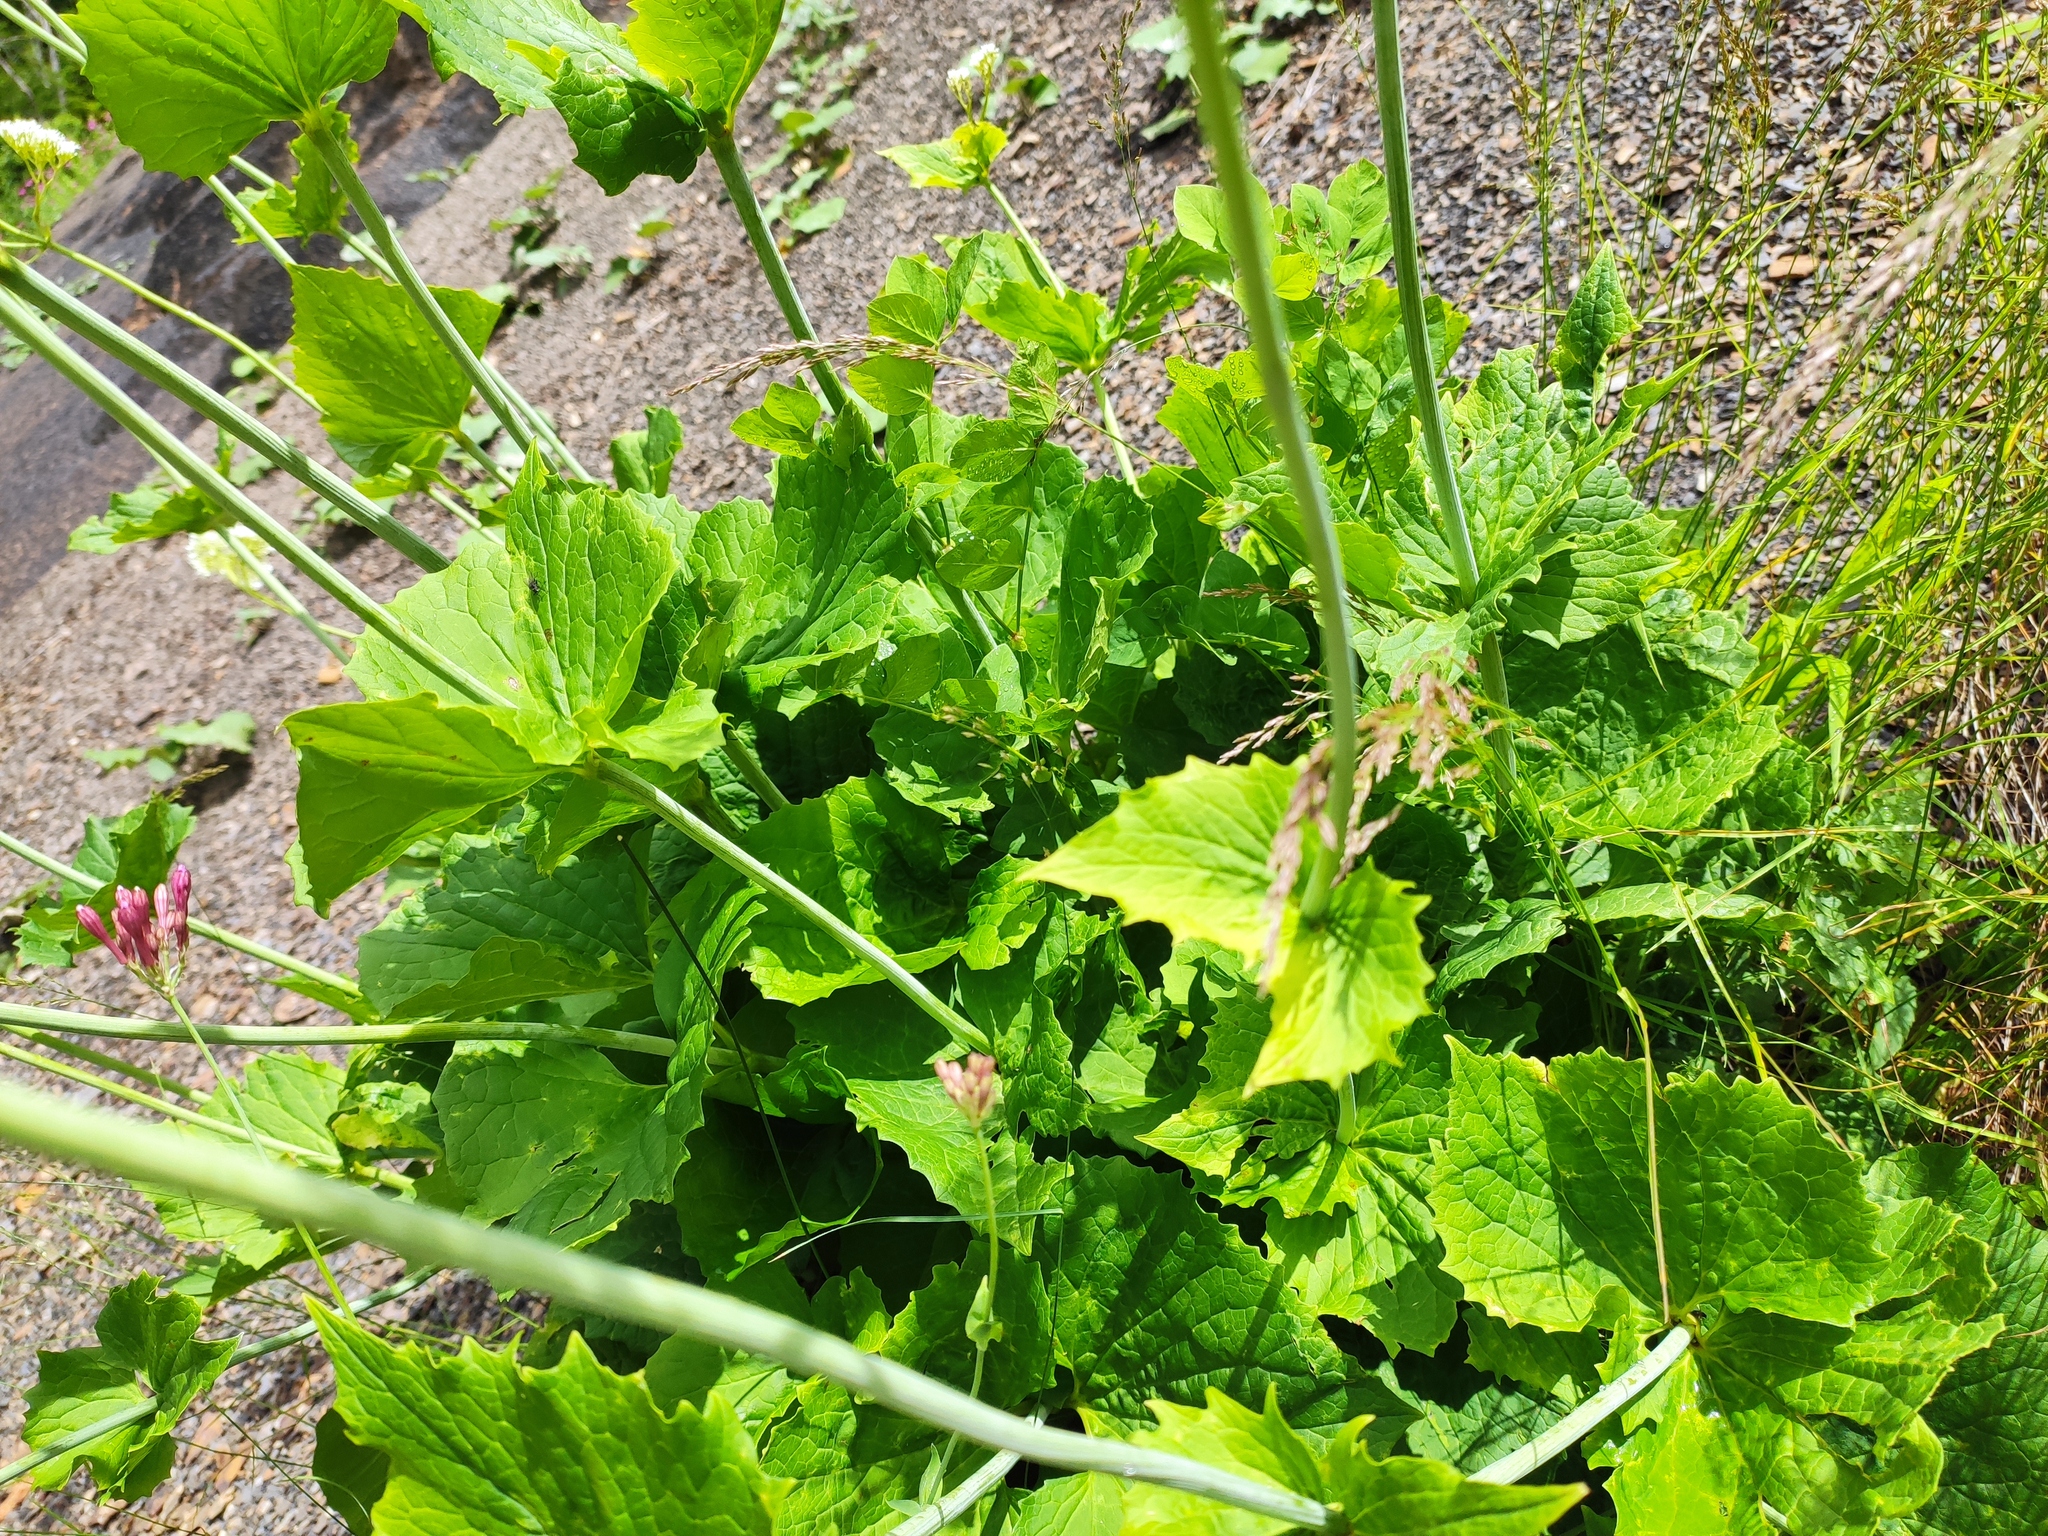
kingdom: Plantae
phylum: Tracheophyta
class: Magnoliopsida
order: Dipsacales
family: Caprifoliaceae
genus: Valeriana
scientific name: Valeriana alliariifolia
